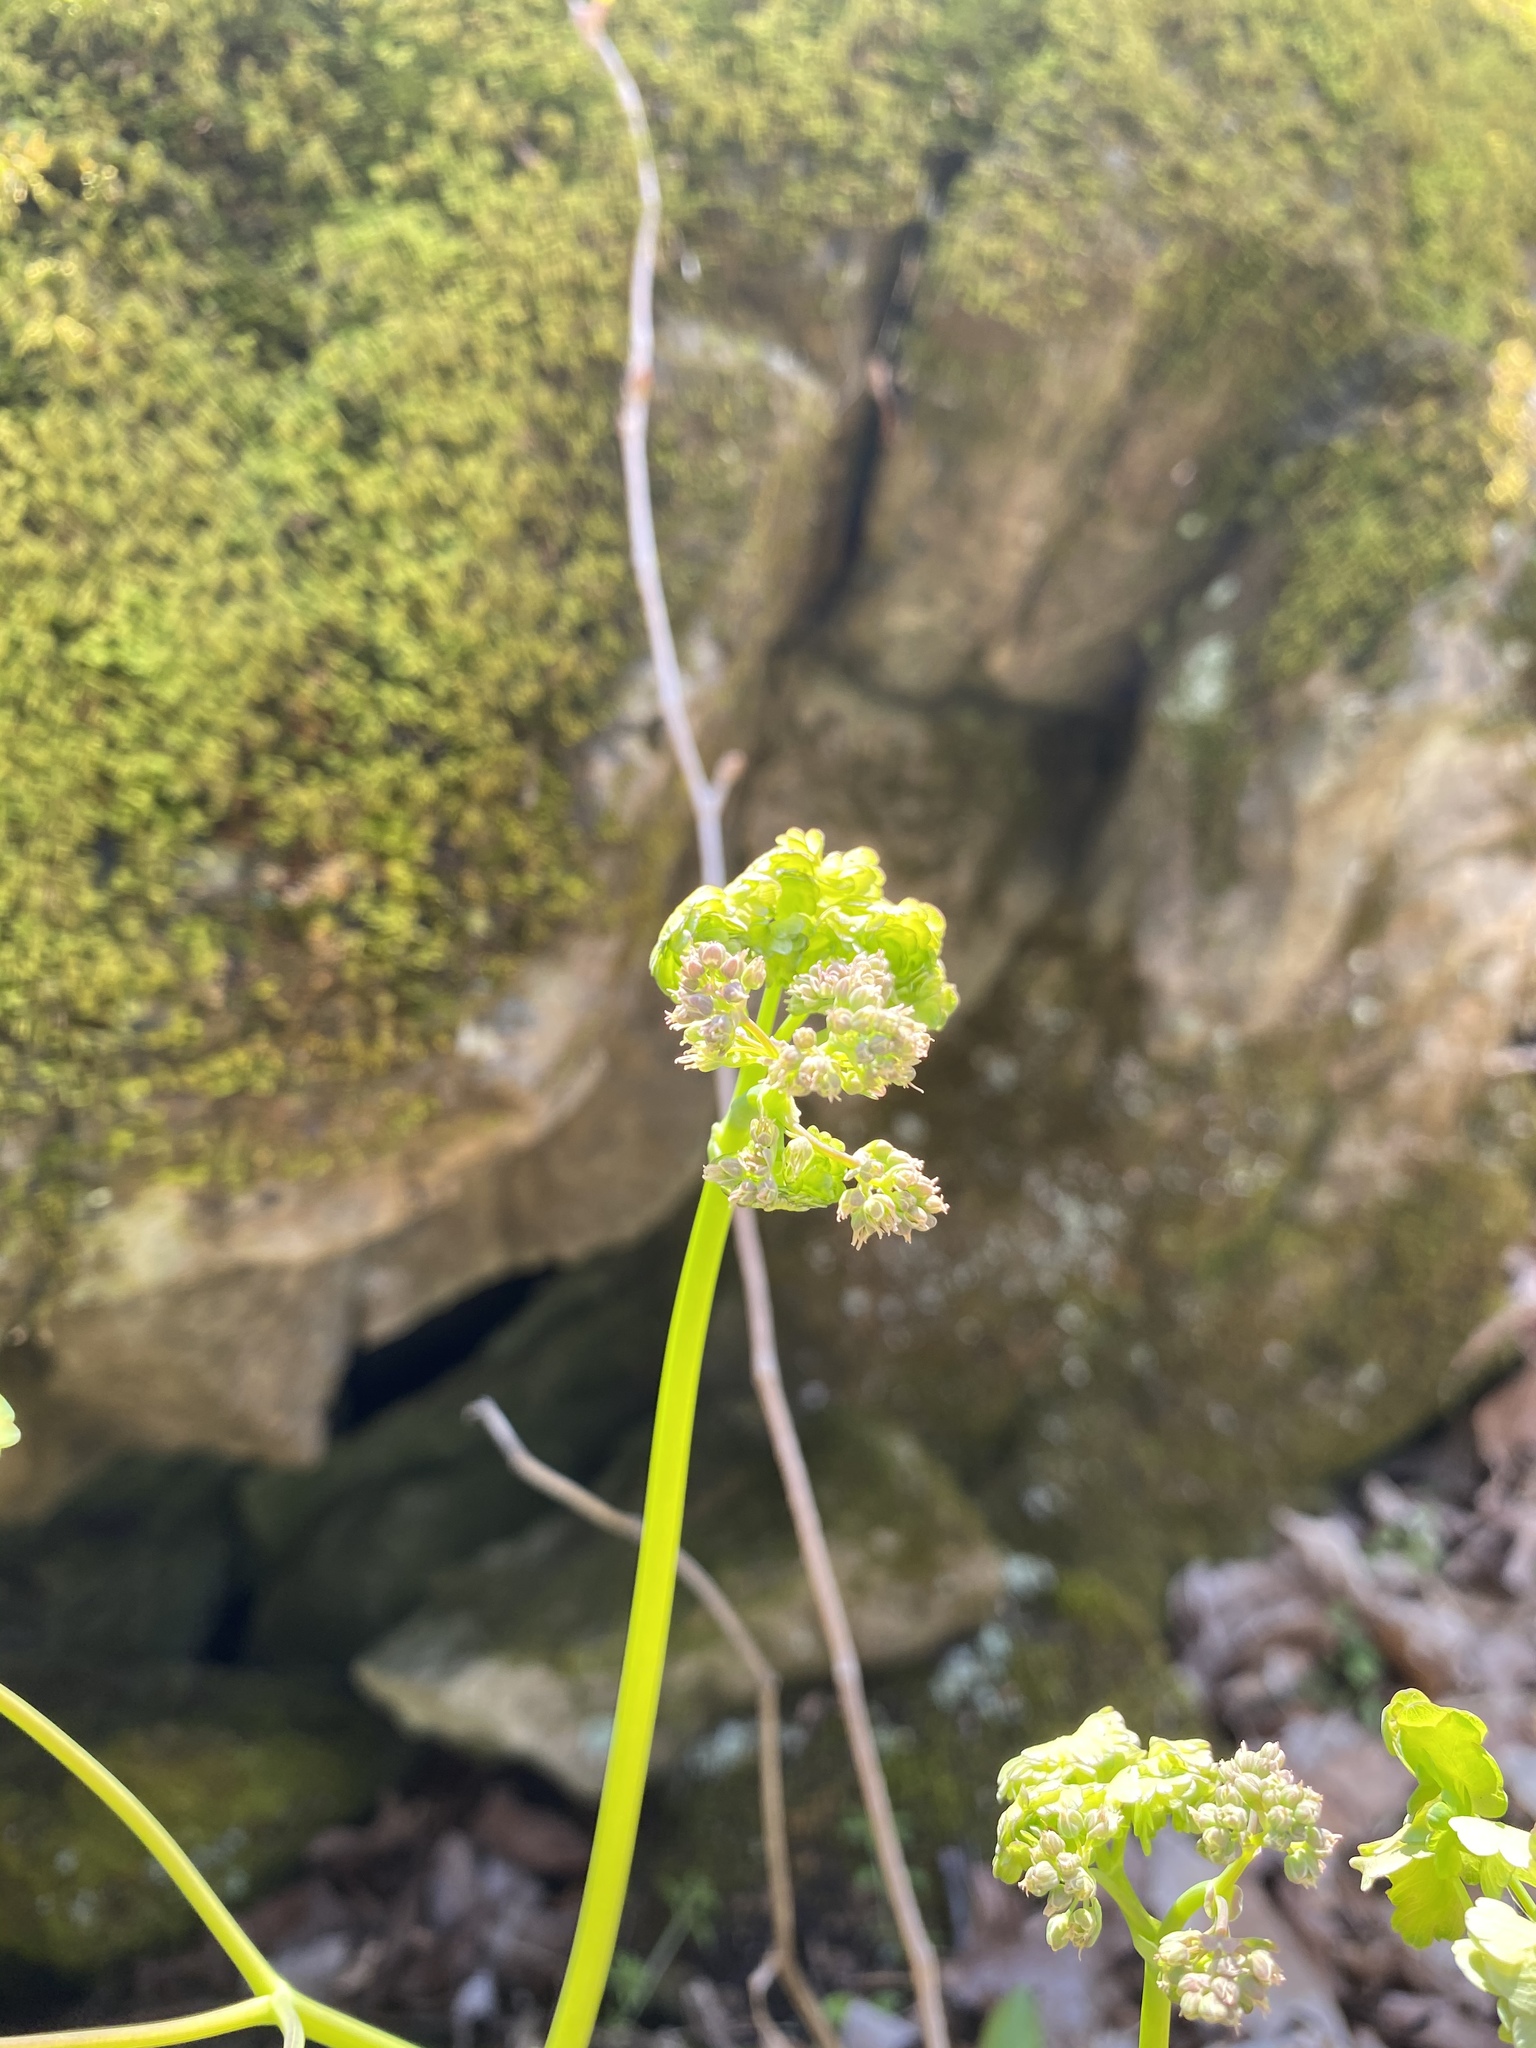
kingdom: Plantae
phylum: Tracheophyta
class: Magnoliopsida
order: Ranunculales
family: Ranunculaceae
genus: Thalictrum
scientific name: Thalictrum dioicum
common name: Early meadow-rue
